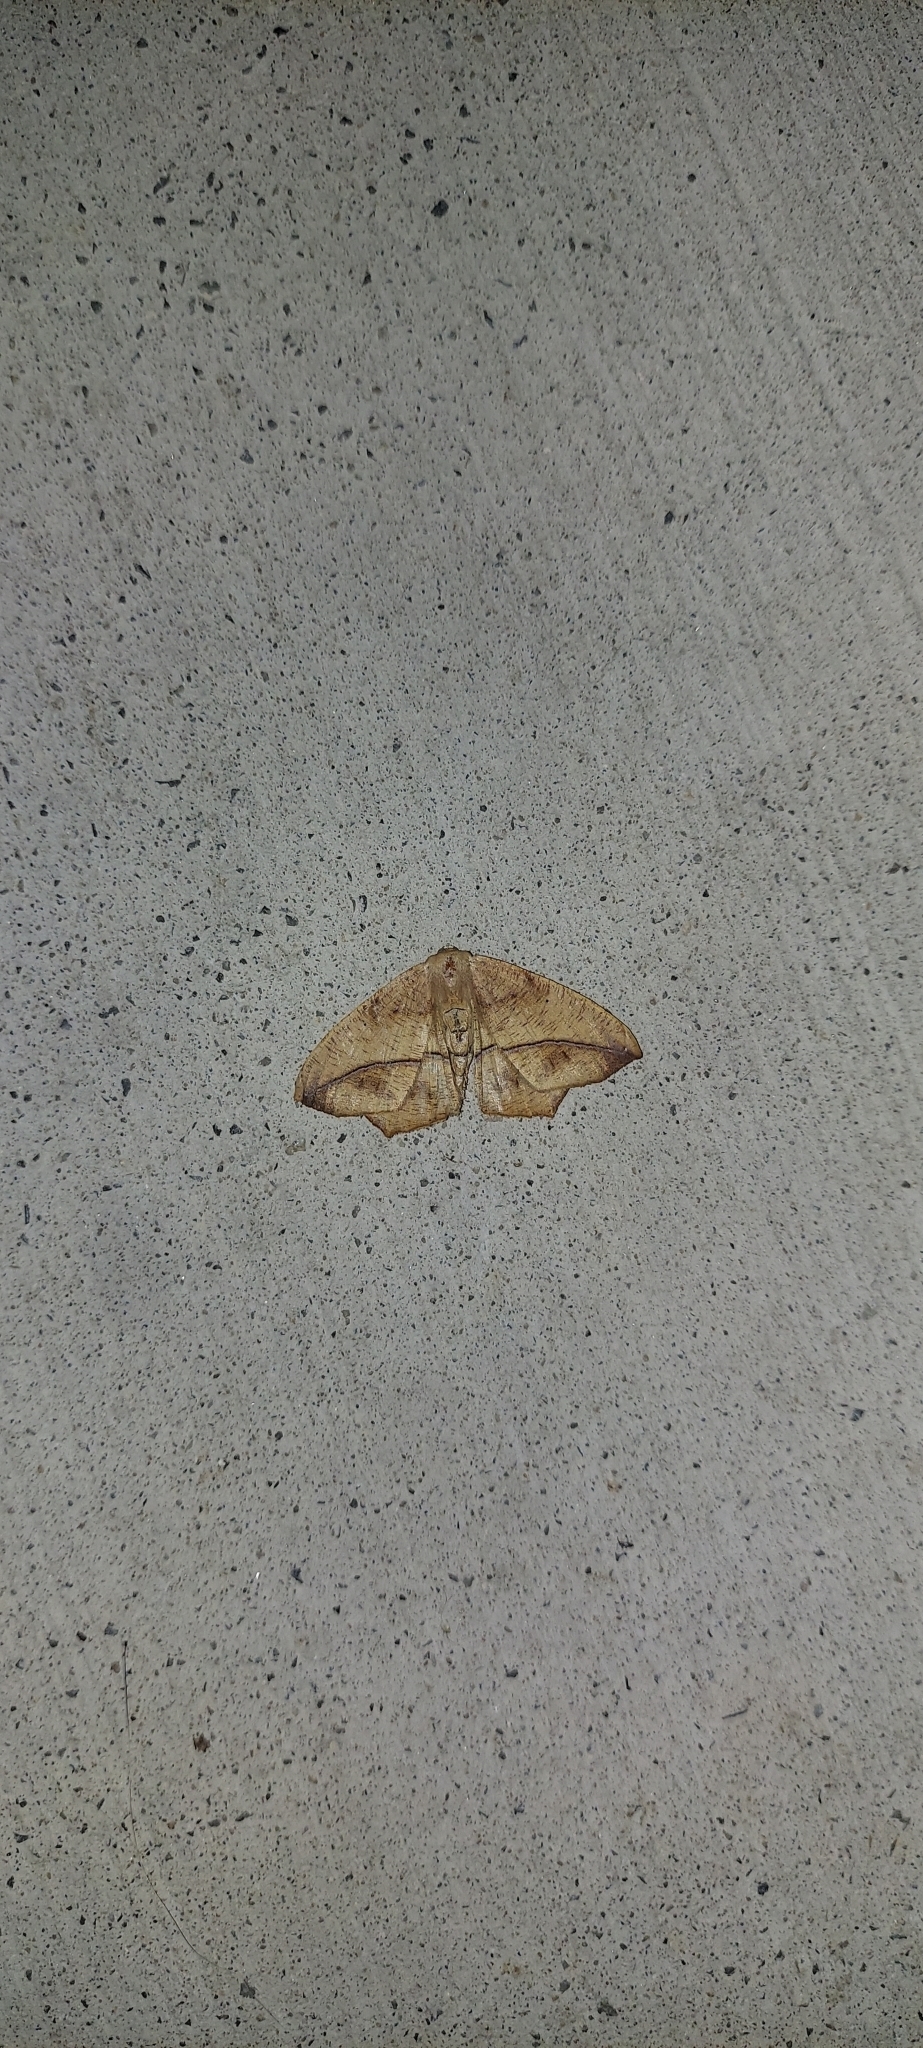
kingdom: Animalia
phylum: Arthropoda
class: Insecta
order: Lepidoptera
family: Geometridae
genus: Prochoerodes
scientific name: Prochoerodes lineola
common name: Large maple spanworm
